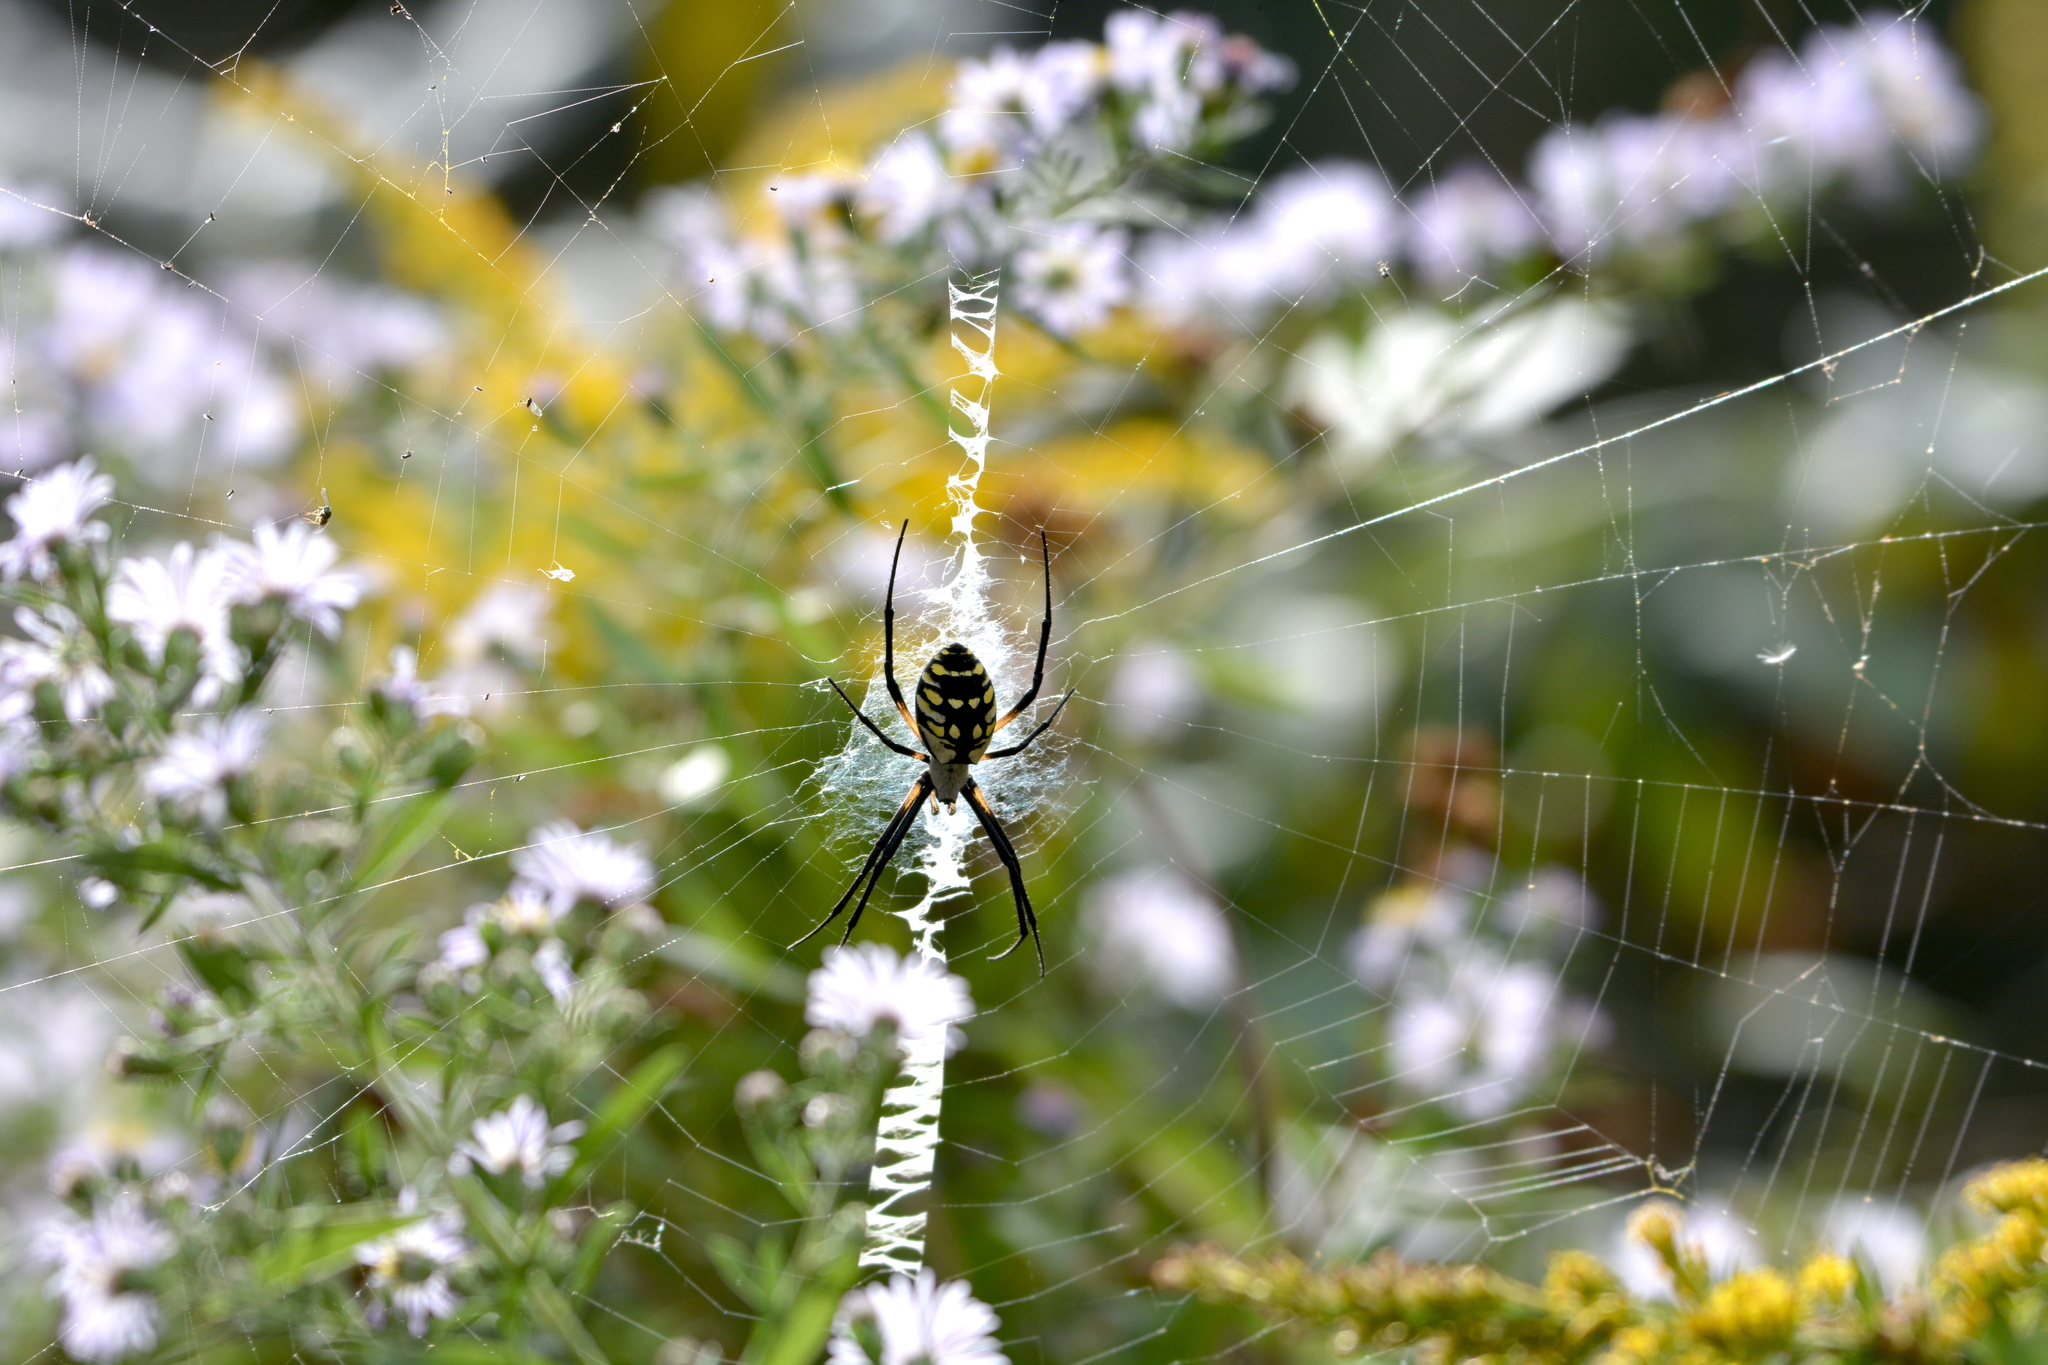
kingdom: Animalia
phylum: Arthropoda
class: Arachnida
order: Araneae
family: Araneidae
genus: Argiope
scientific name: Argiope aurantia
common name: Orb weavers
